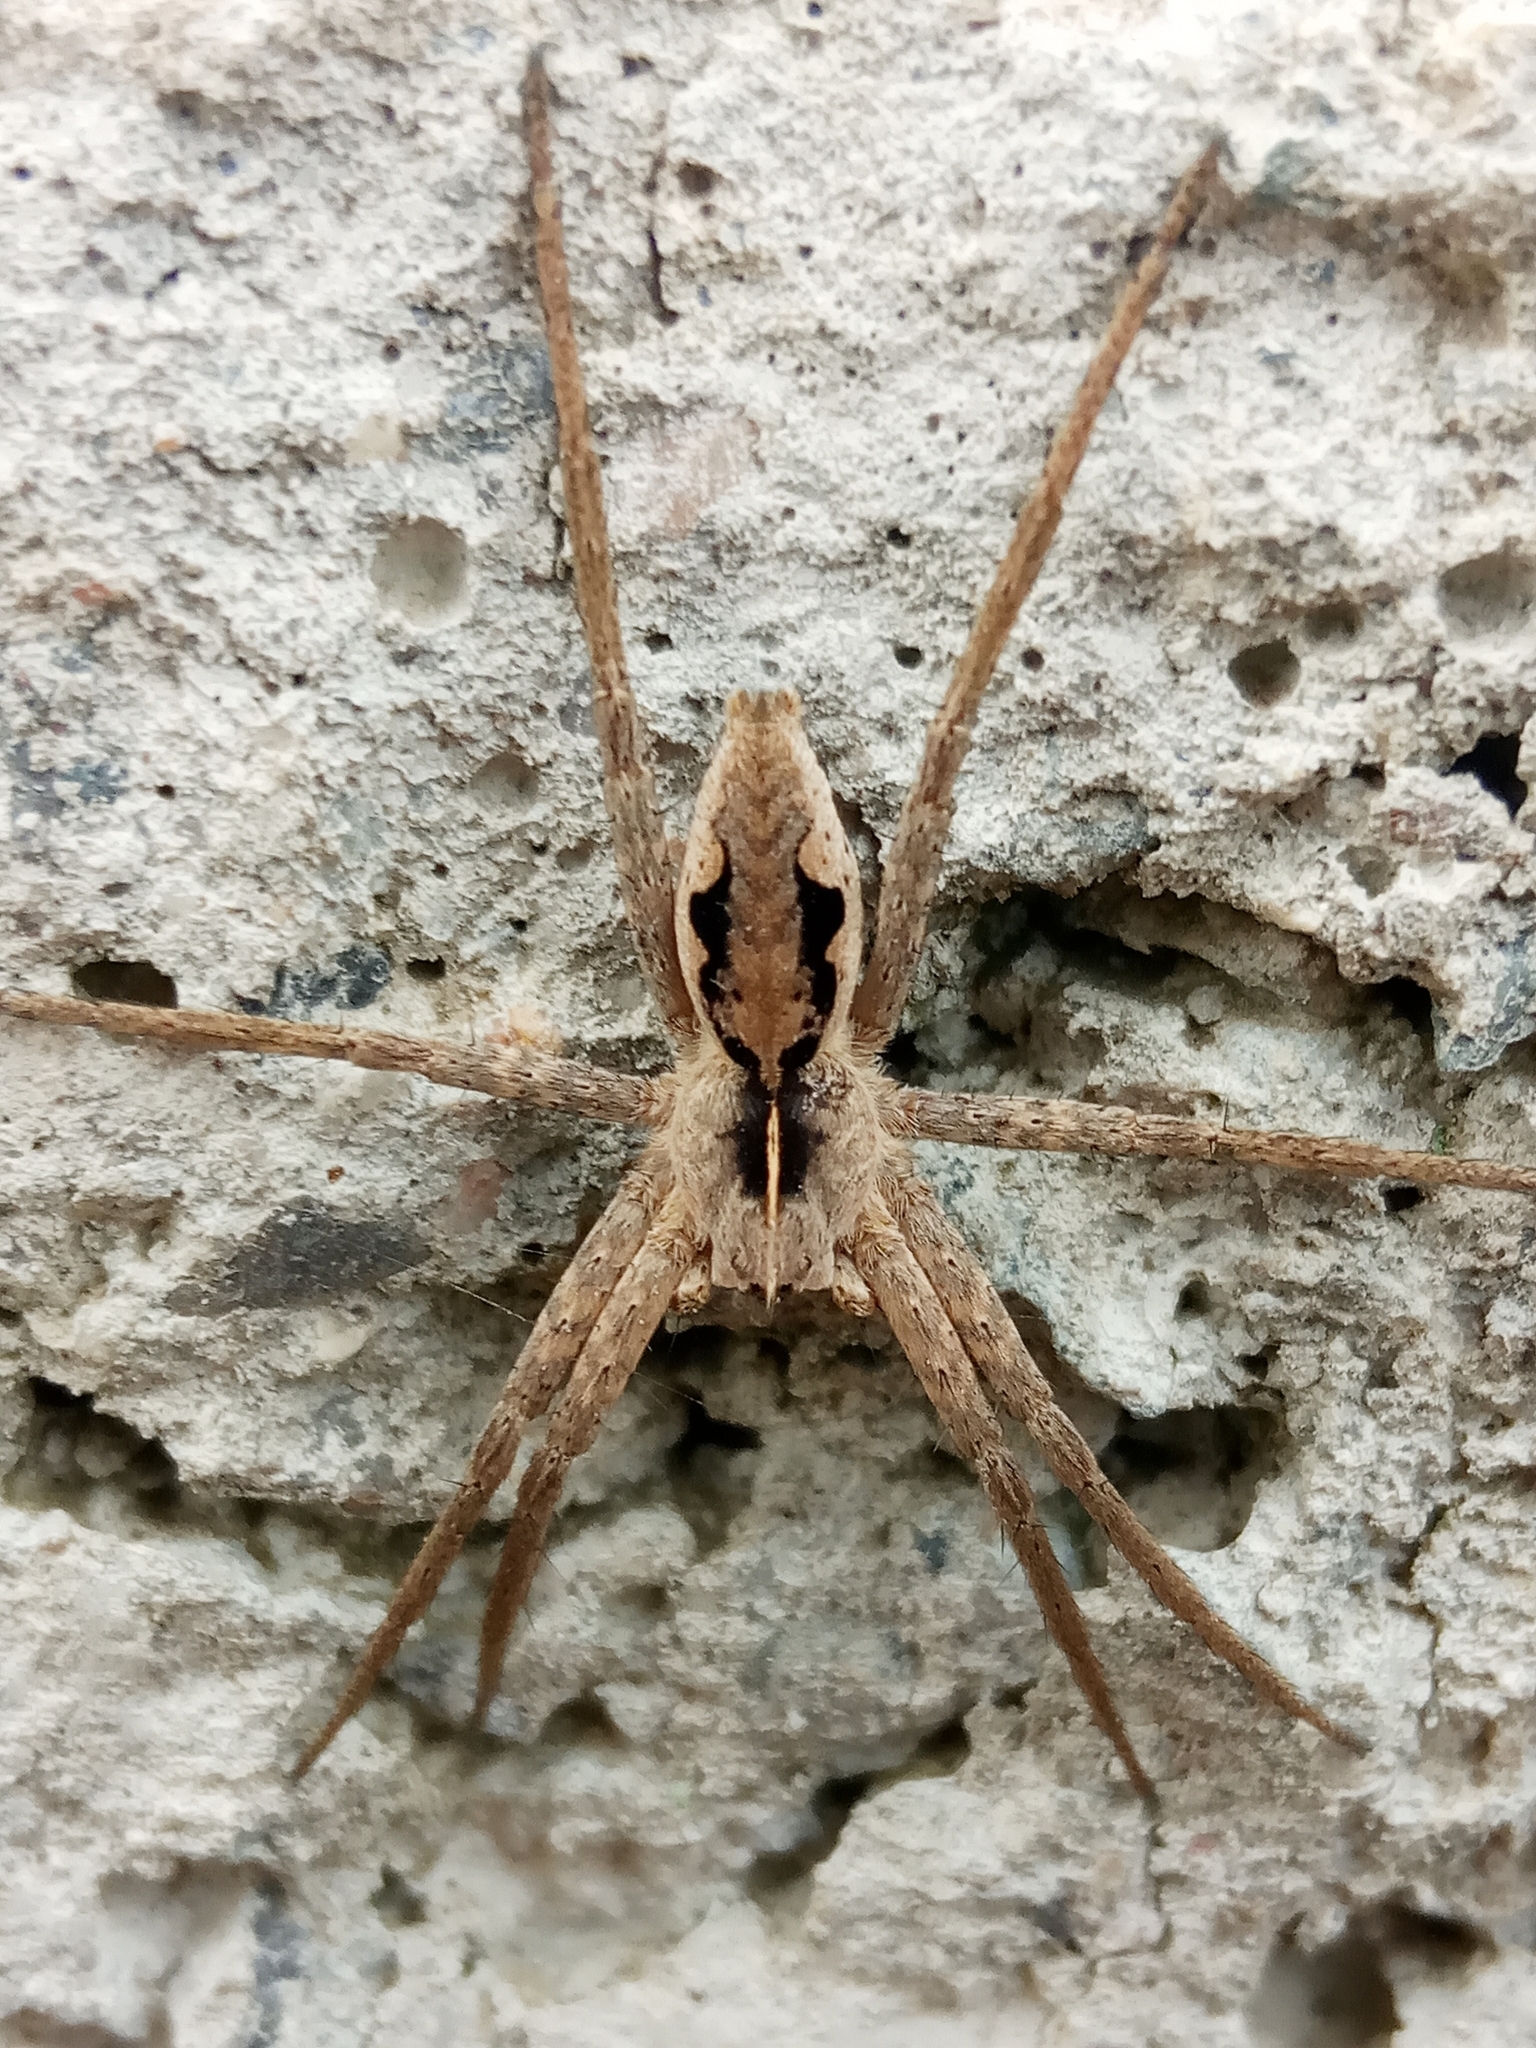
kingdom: Animalia
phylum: Arthropoda
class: Arachnida
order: Araneae
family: Pisauridae
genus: Pisaura
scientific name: Pisaura
